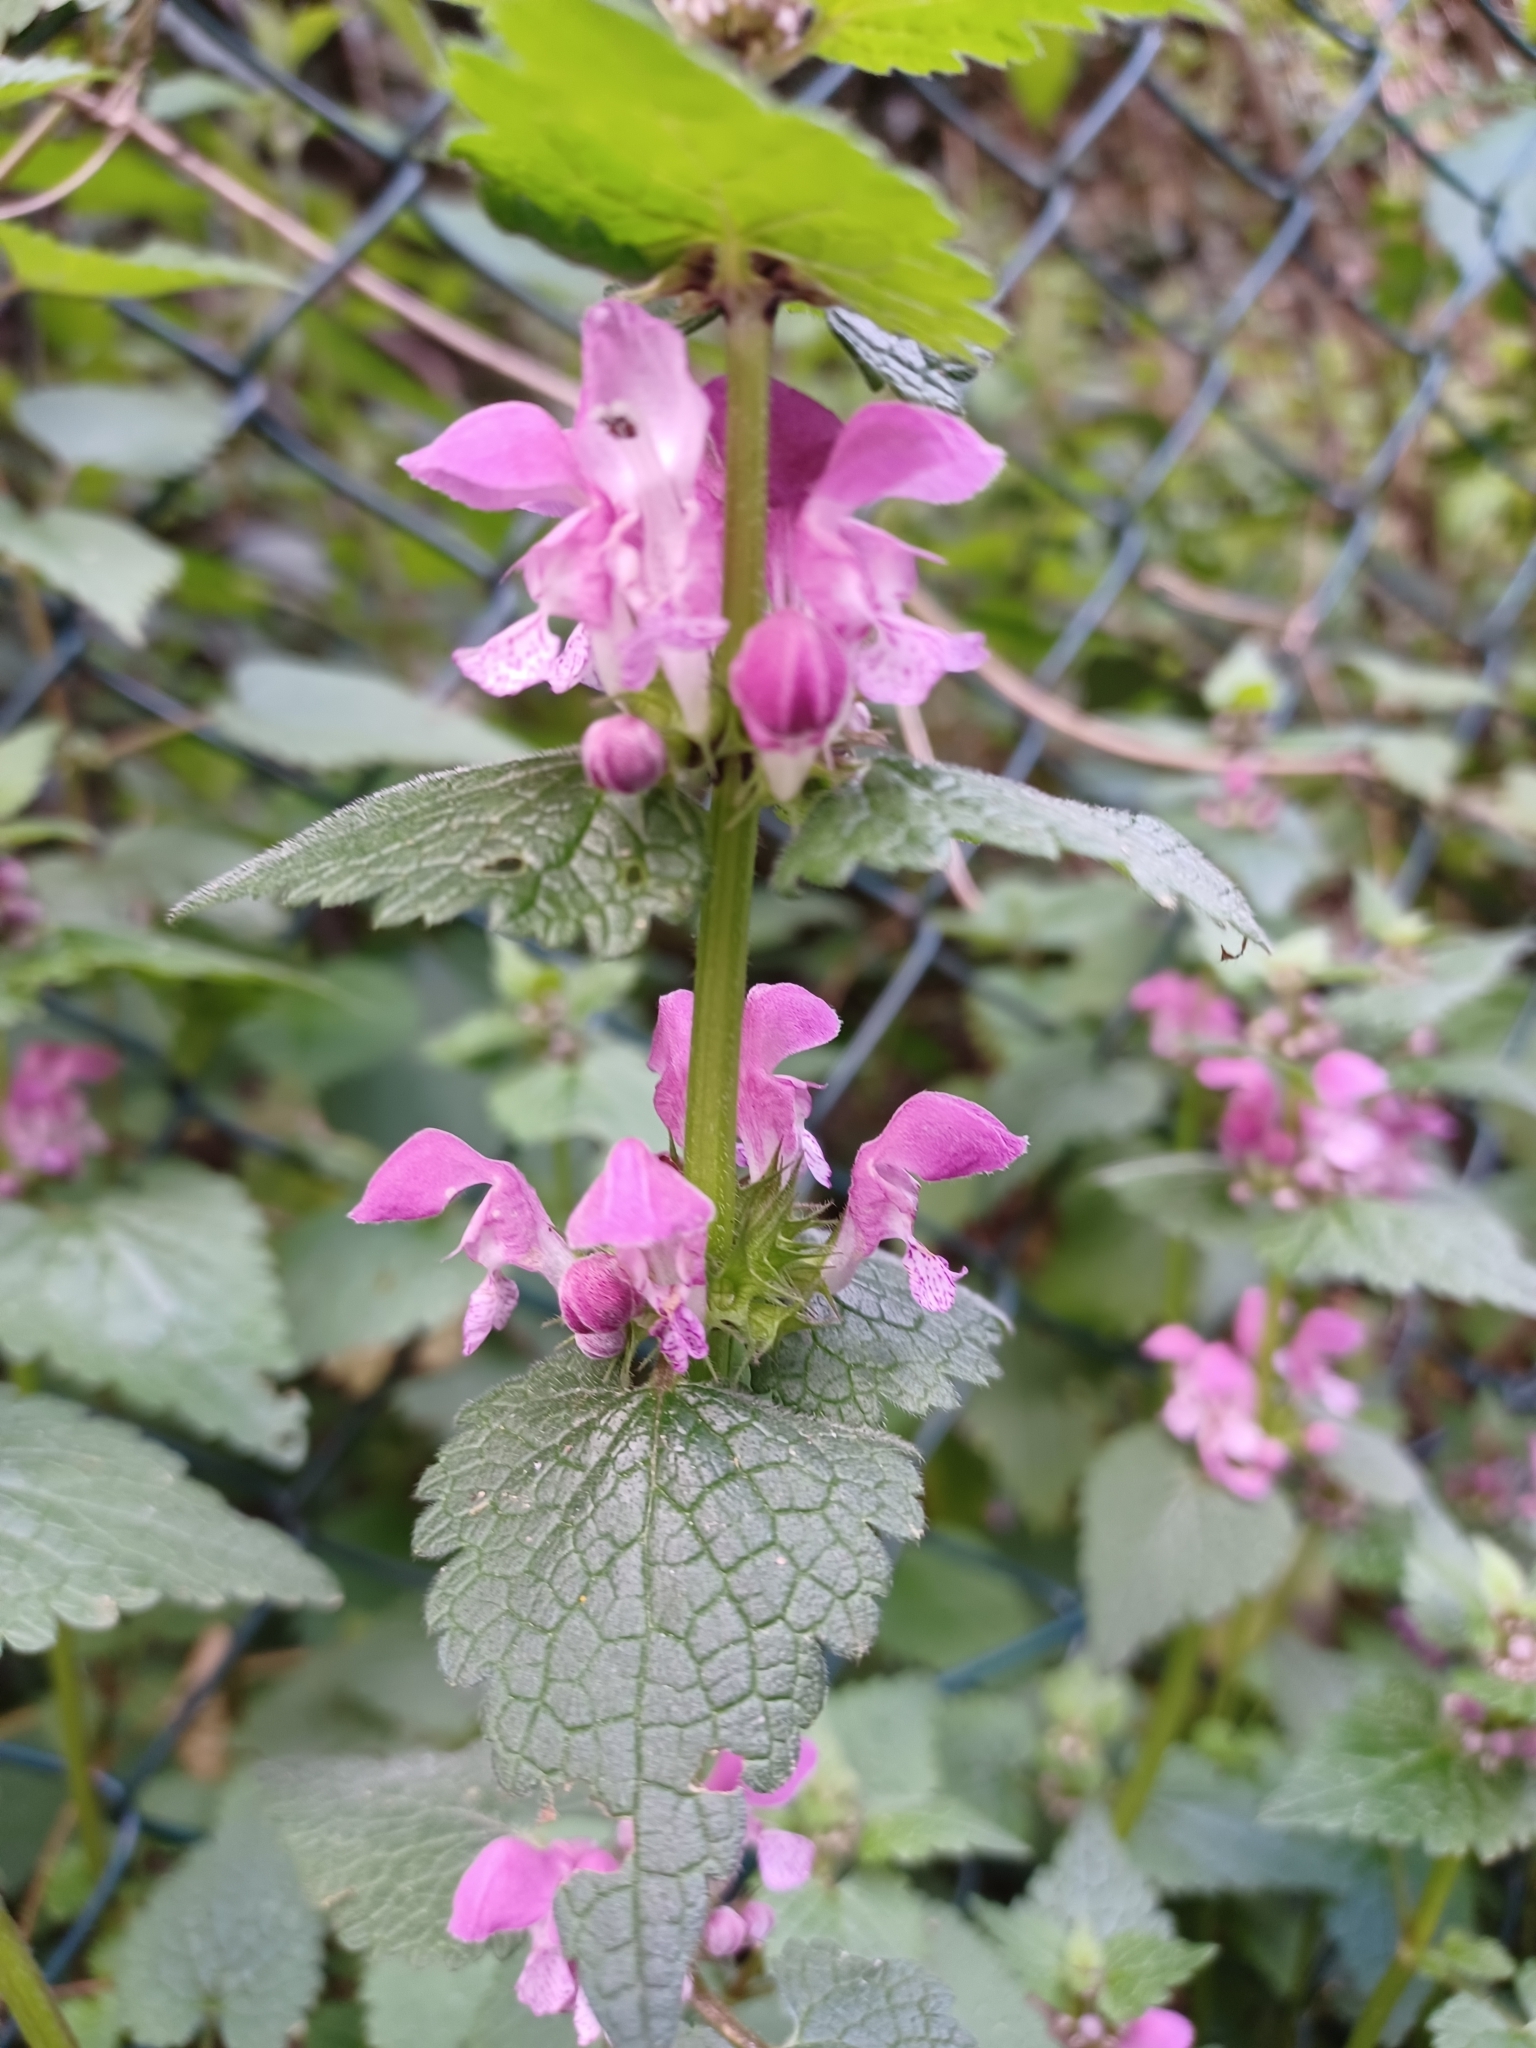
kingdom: Plantae
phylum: Tracheophyta
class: Magnoliopsida
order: Lamiales
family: Lamiaceae
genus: Lamium
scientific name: Lamium maculatum
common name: Spotted dead-nettle
